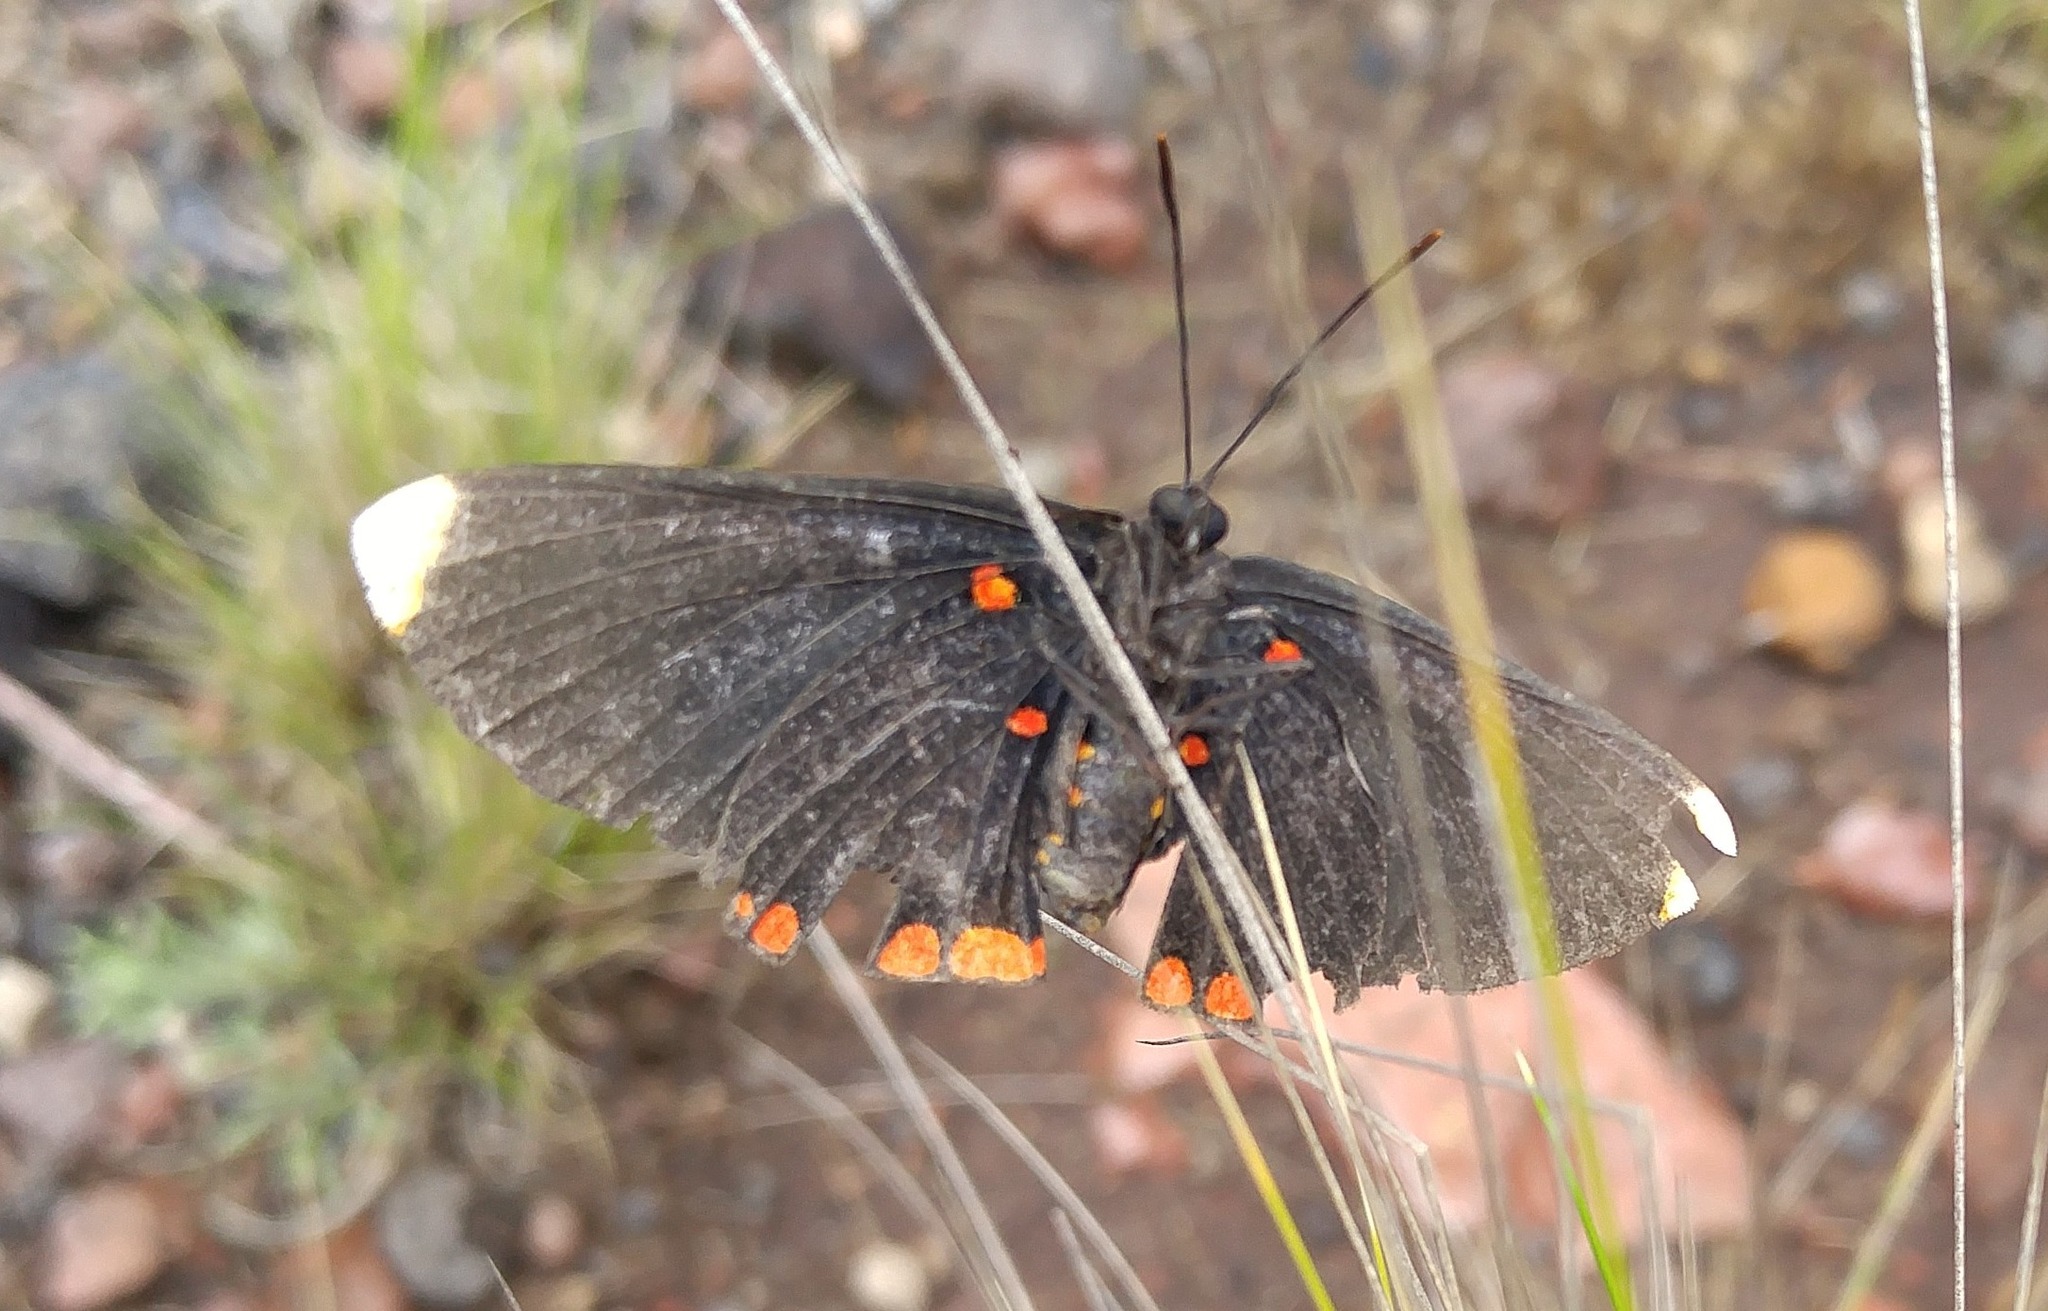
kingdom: Animalia
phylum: Arthropoda
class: Insecta
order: Lepidoptera
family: Lycaenidae
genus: Melanis
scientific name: Melanis pixe
